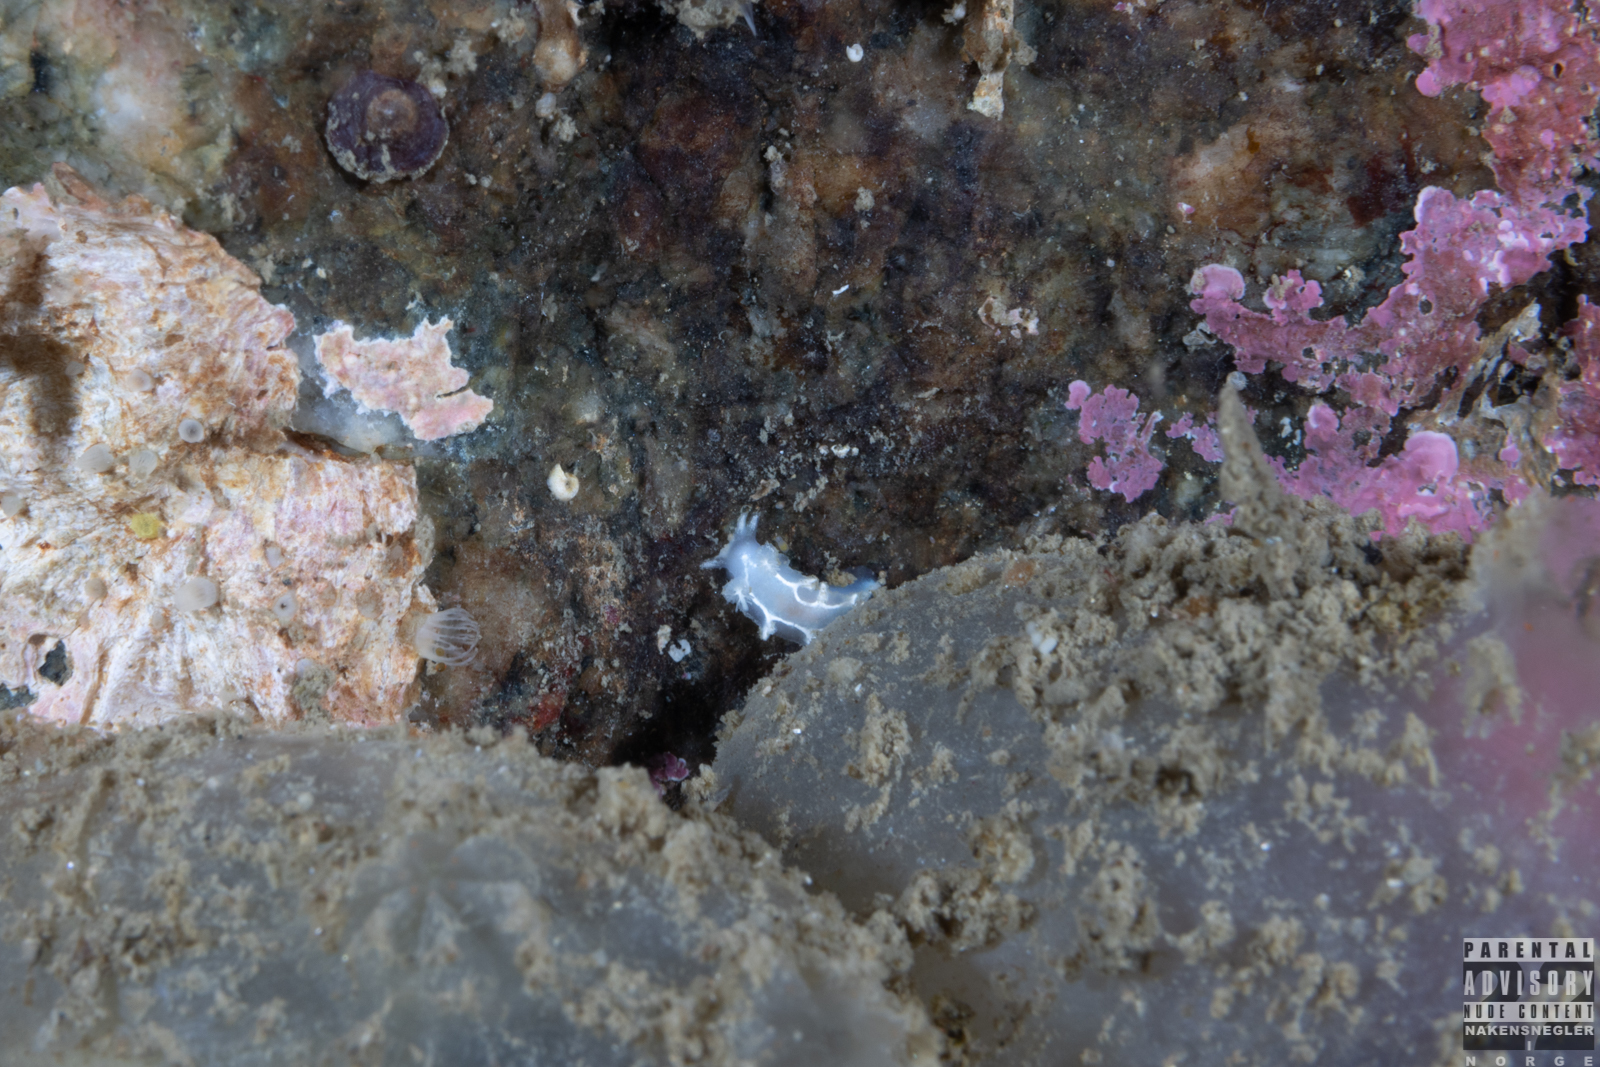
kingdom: Animalia
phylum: Mollusca
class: Gastropoda
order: Nudibranchia
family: Tritoniidae
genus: Duvaucelia
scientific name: Duvaucelia lineata
